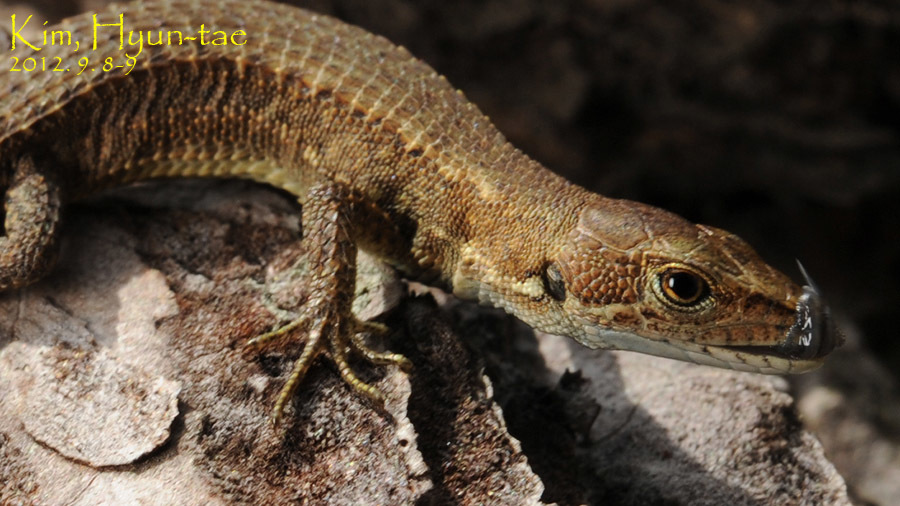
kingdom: Animalia
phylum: Chordata
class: Squamata
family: Lacertidae
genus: Takydromus
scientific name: Takydromus amurensis
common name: Amur grass lizard
